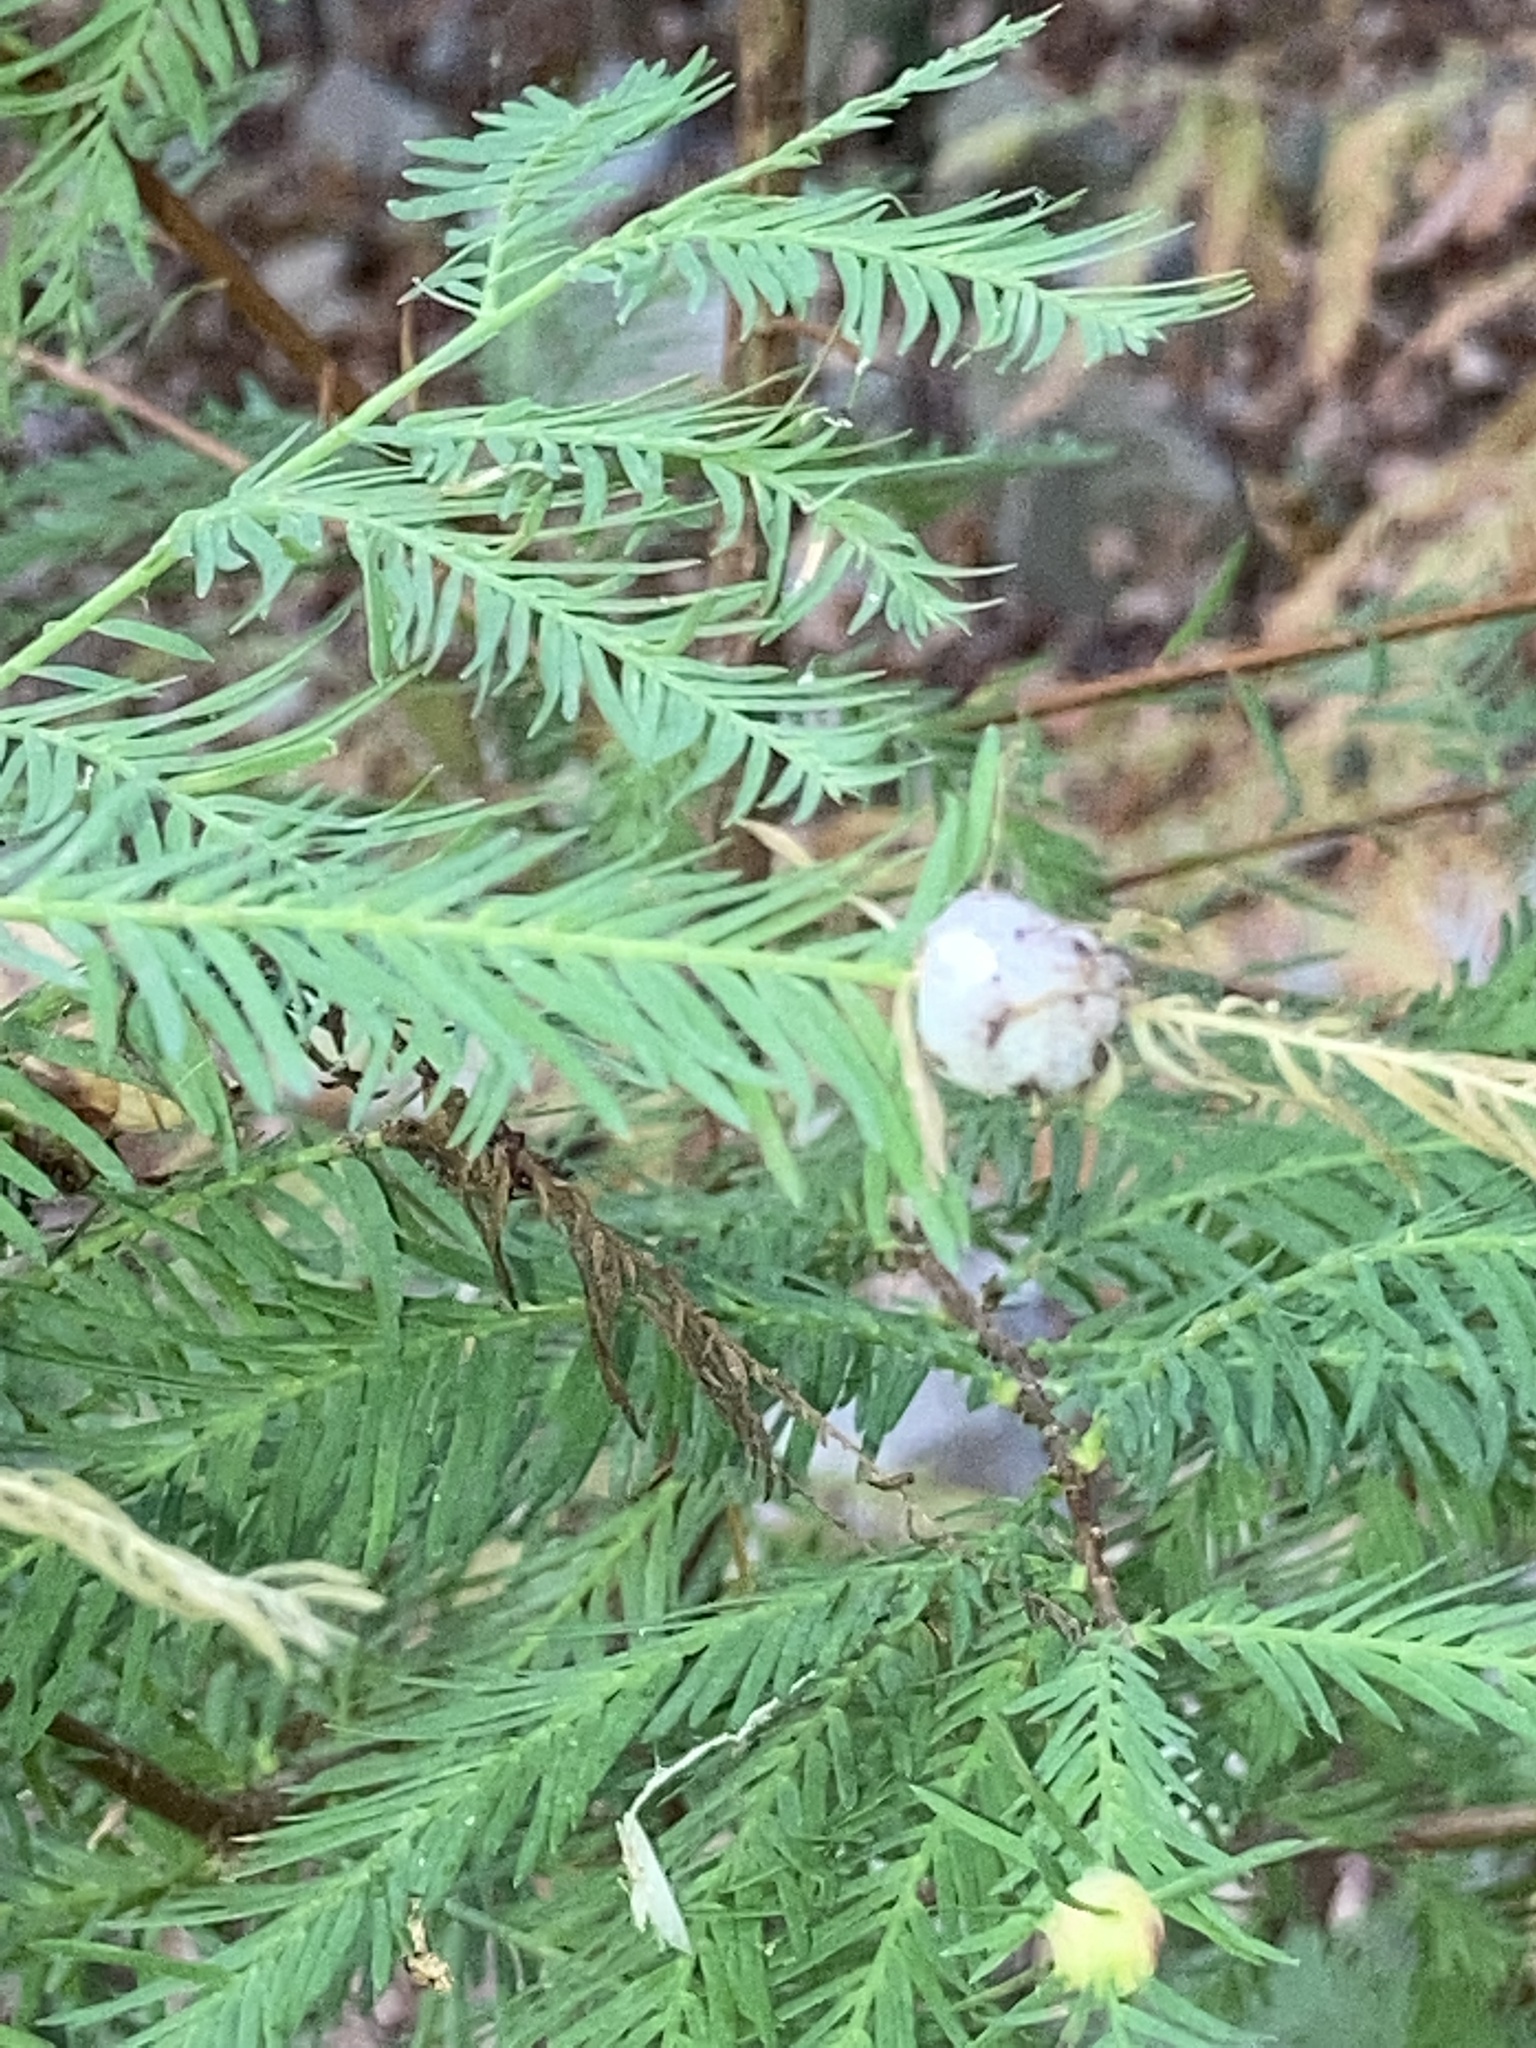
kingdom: Plantae
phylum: Tracheophyta
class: Pinopsida
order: Pinales
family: Cupressaceae
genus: Taxodium
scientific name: Taxodium distichum
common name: Bald cypress
